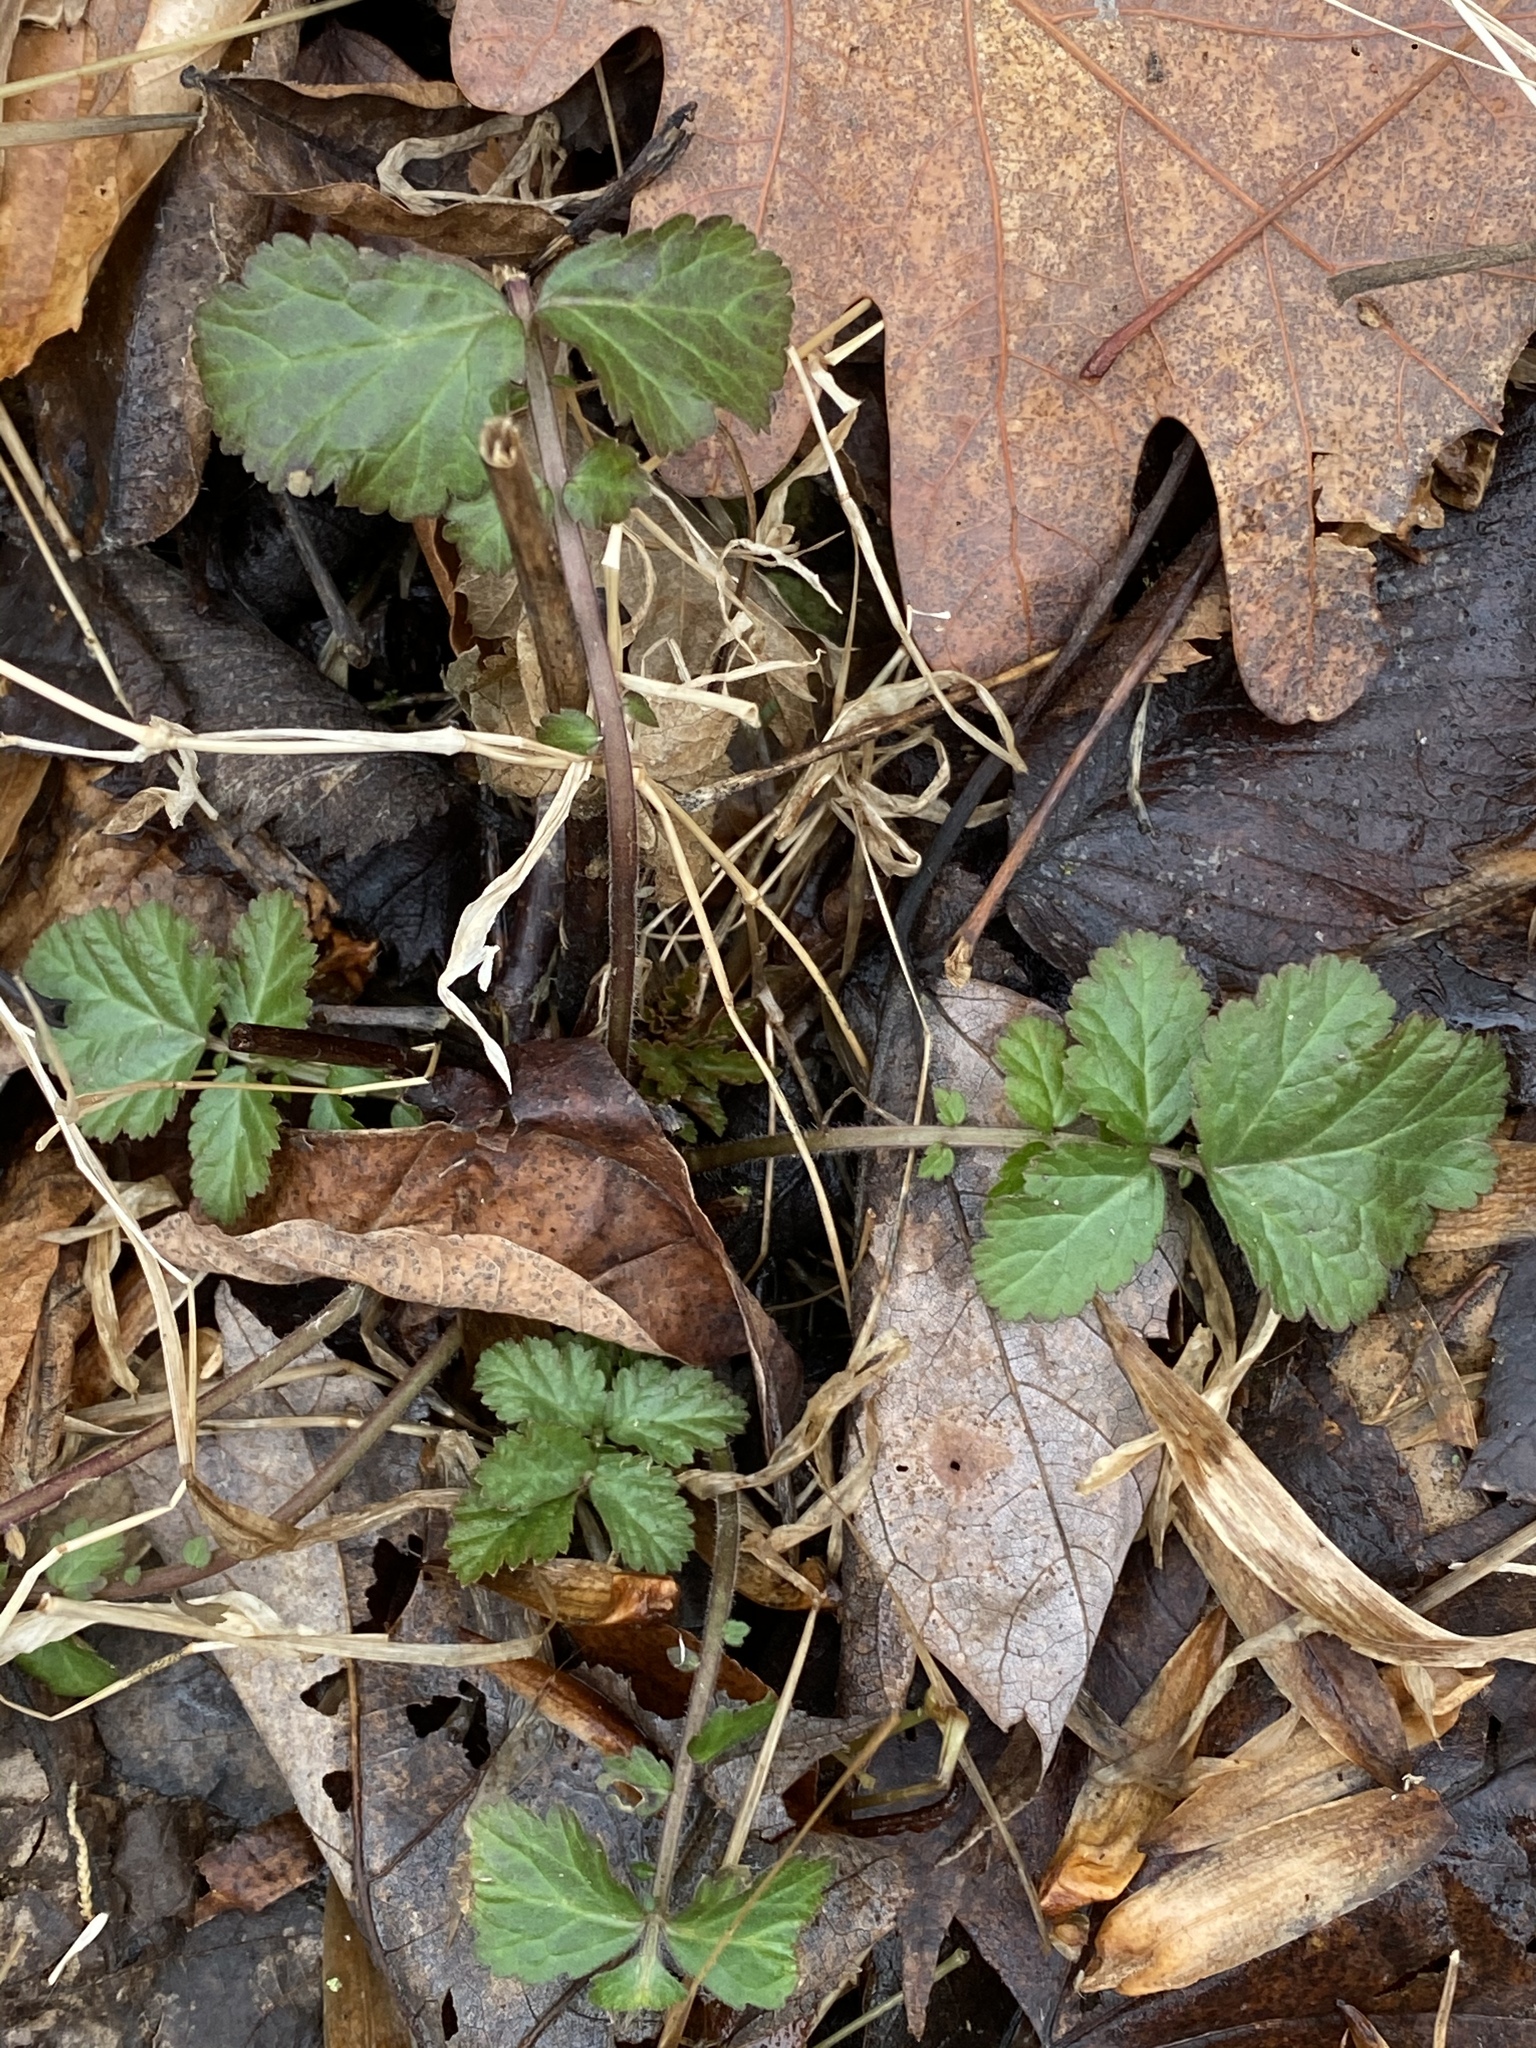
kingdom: Plantae
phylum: Tracheophyta
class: Magnoliopsida
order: Rosales
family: Rosaceae
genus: Geum
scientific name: Geum canadense
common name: White avens
